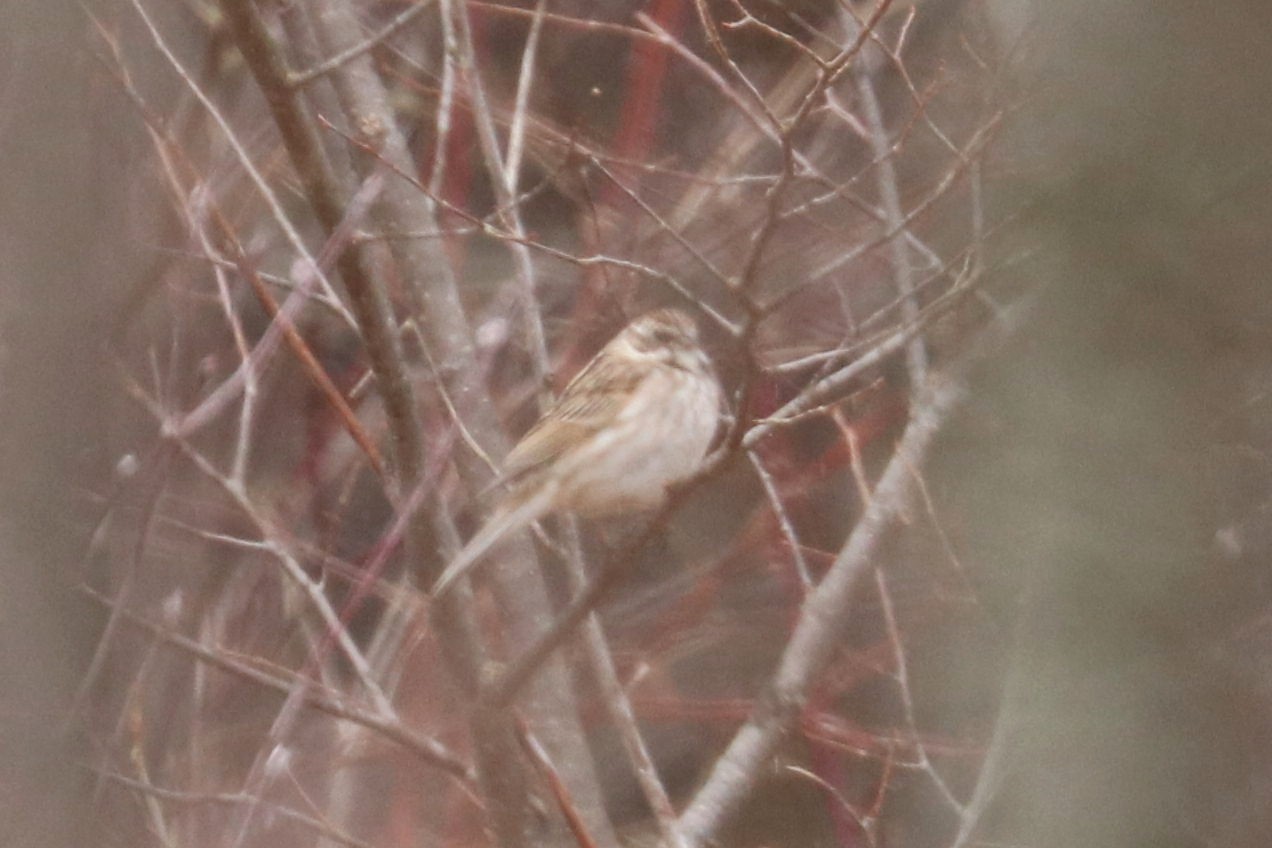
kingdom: Animalia
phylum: Chordata
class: Aves
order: Passeriformes
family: Emberizidae
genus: Emberiza
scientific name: Emberiza schoeniclus
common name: Reed bunting
